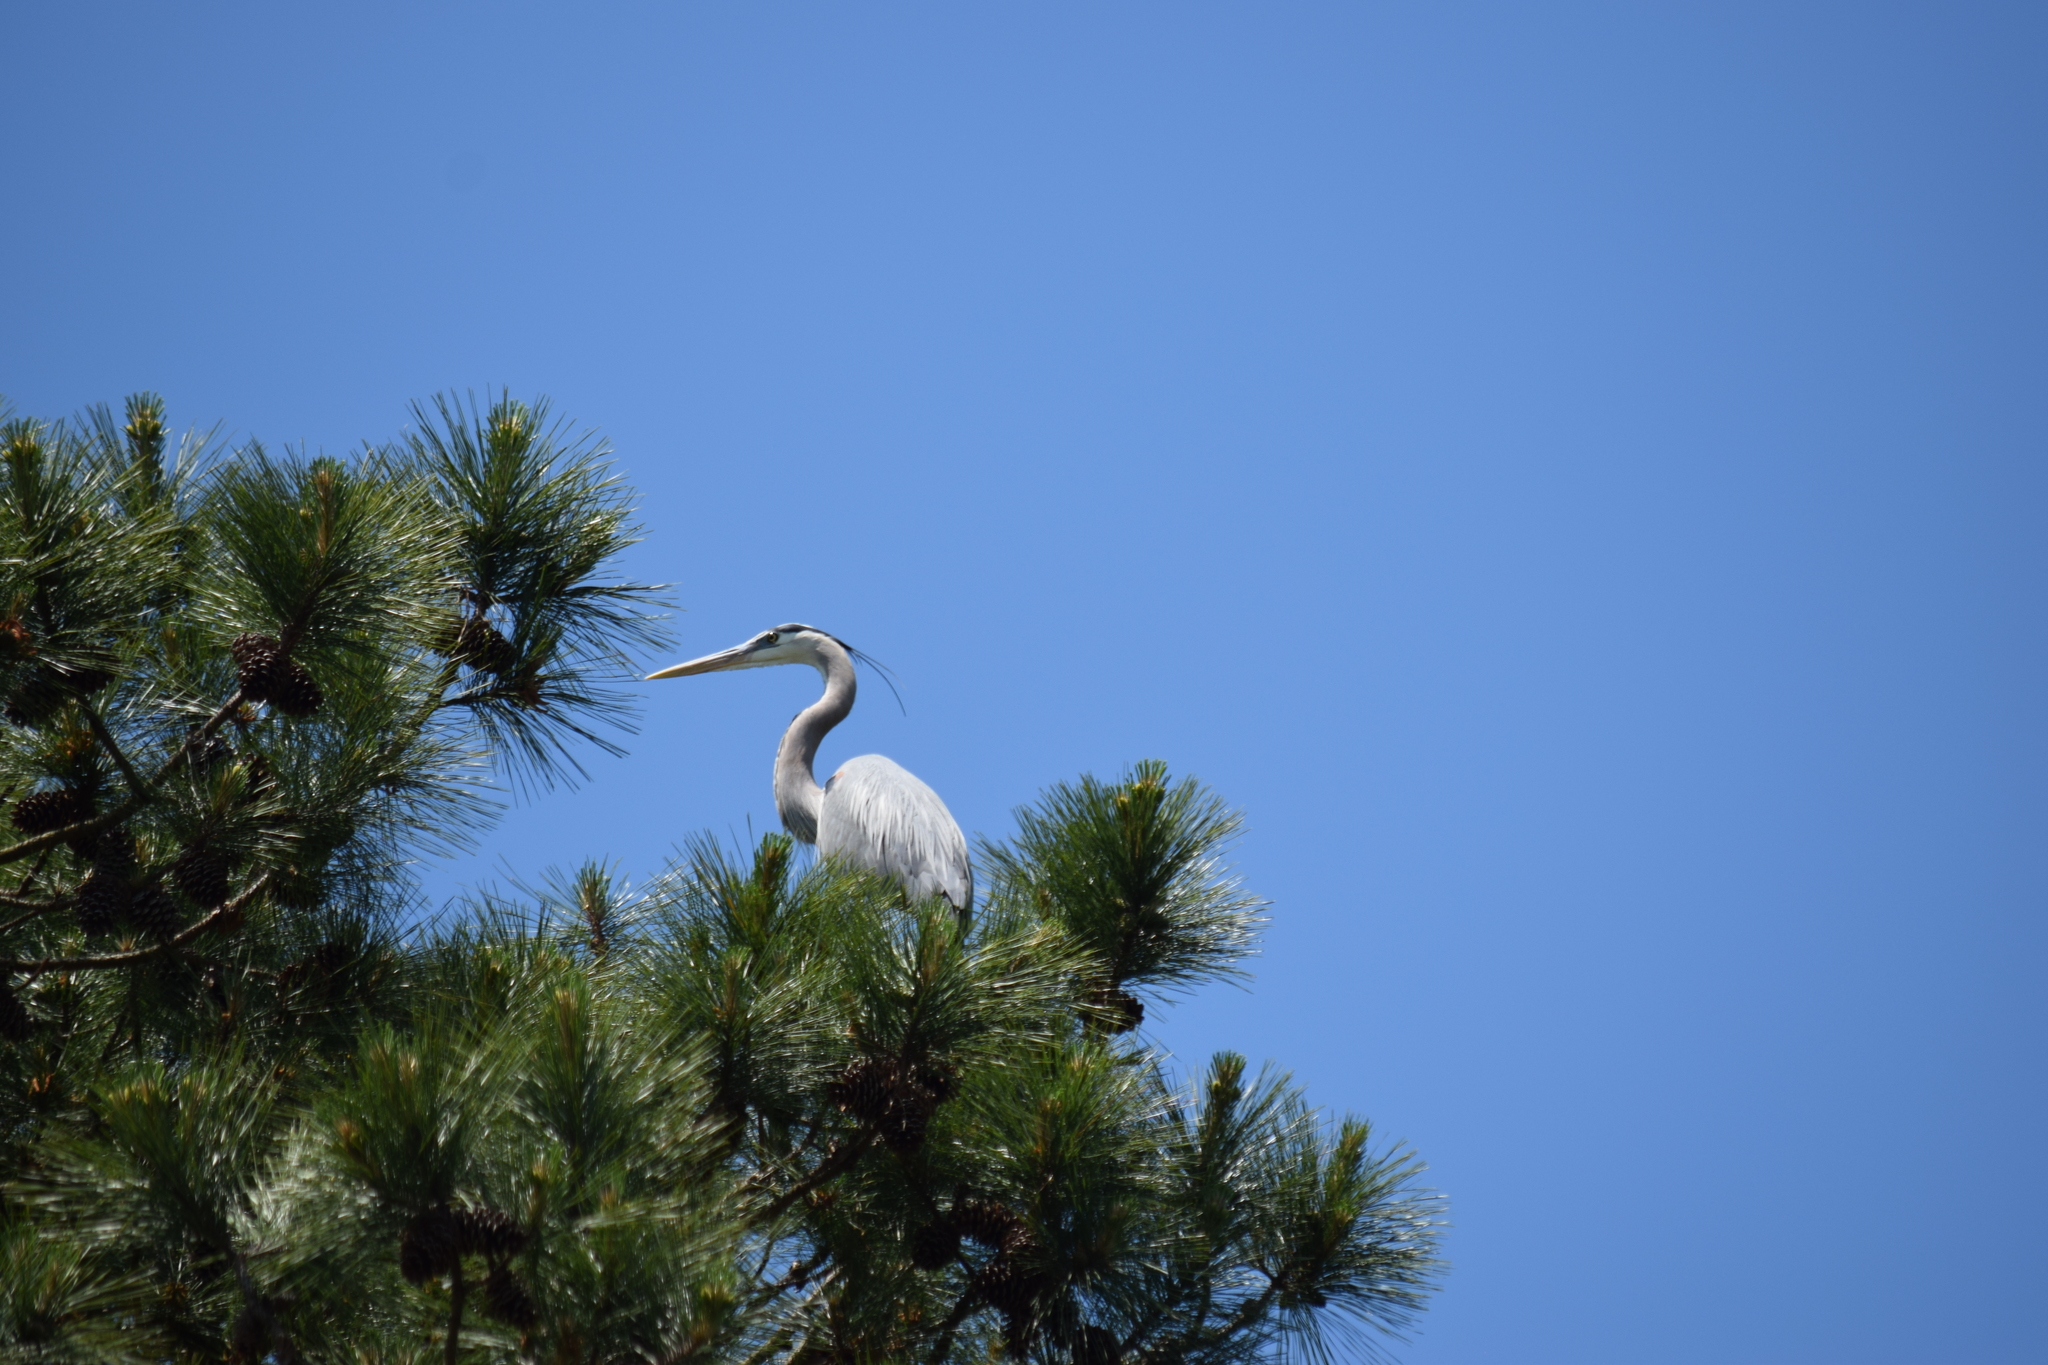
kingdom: Animalia
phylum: Chordata
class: Aves
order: Pelecaniformes
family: Ardeidae
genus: Ardea
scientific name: Ardea herodias
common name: Great blue heron
